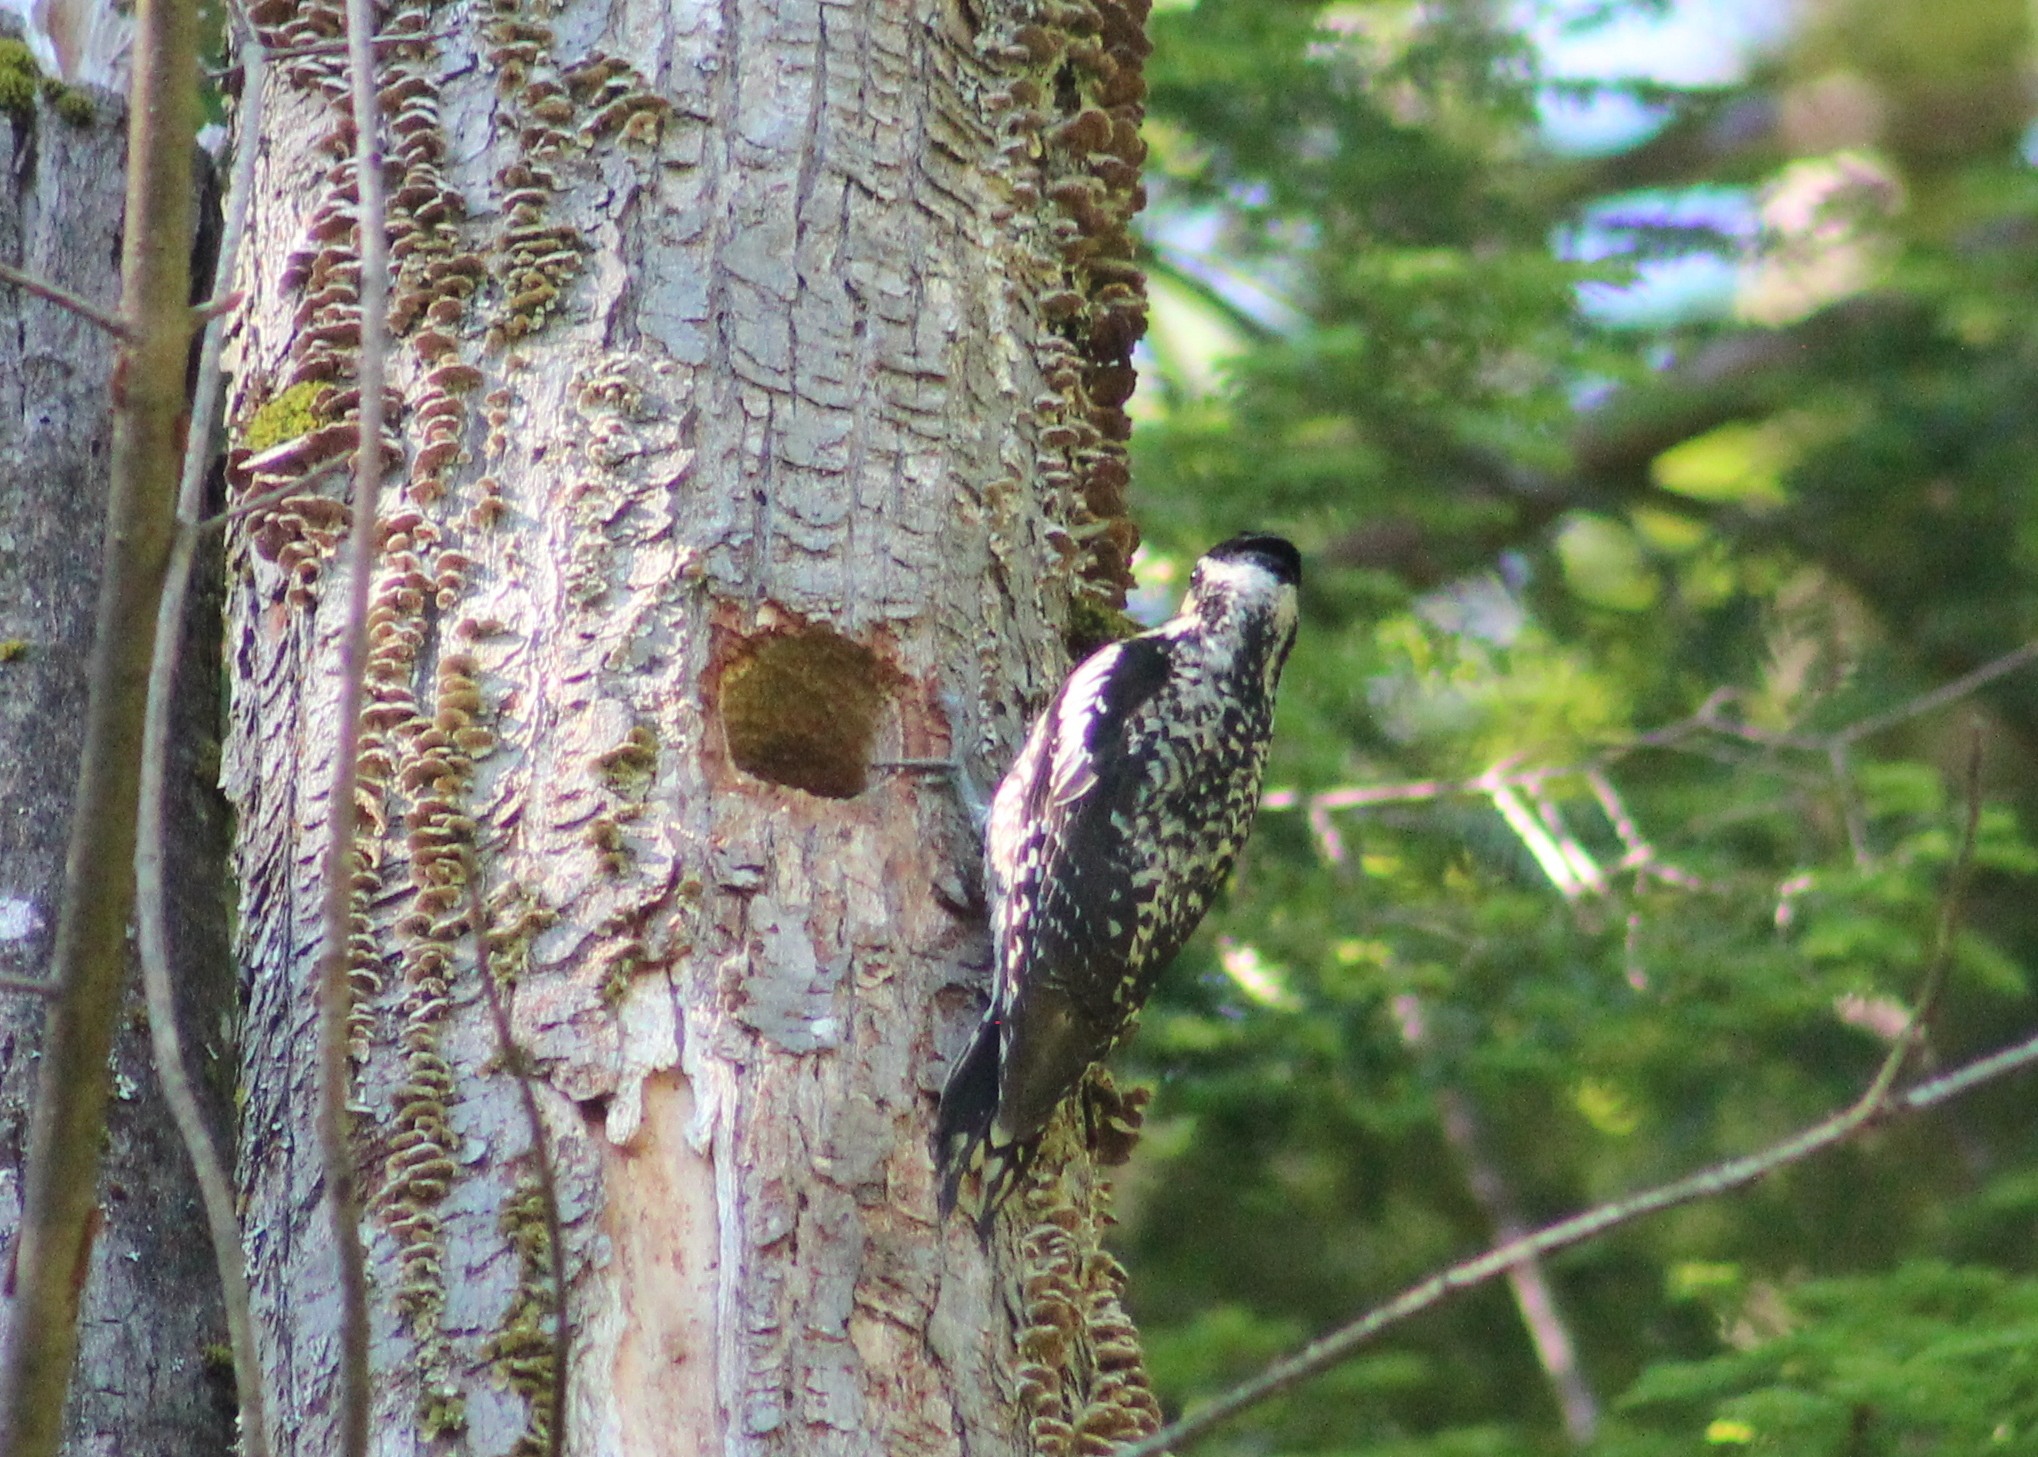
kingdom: Animalia
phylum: Chordata
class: Aves
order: Piciformes
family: Picidae
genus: Sphyrapicus
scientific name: Sphyrapicus varius
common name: Yellow-bellied sapsucker
